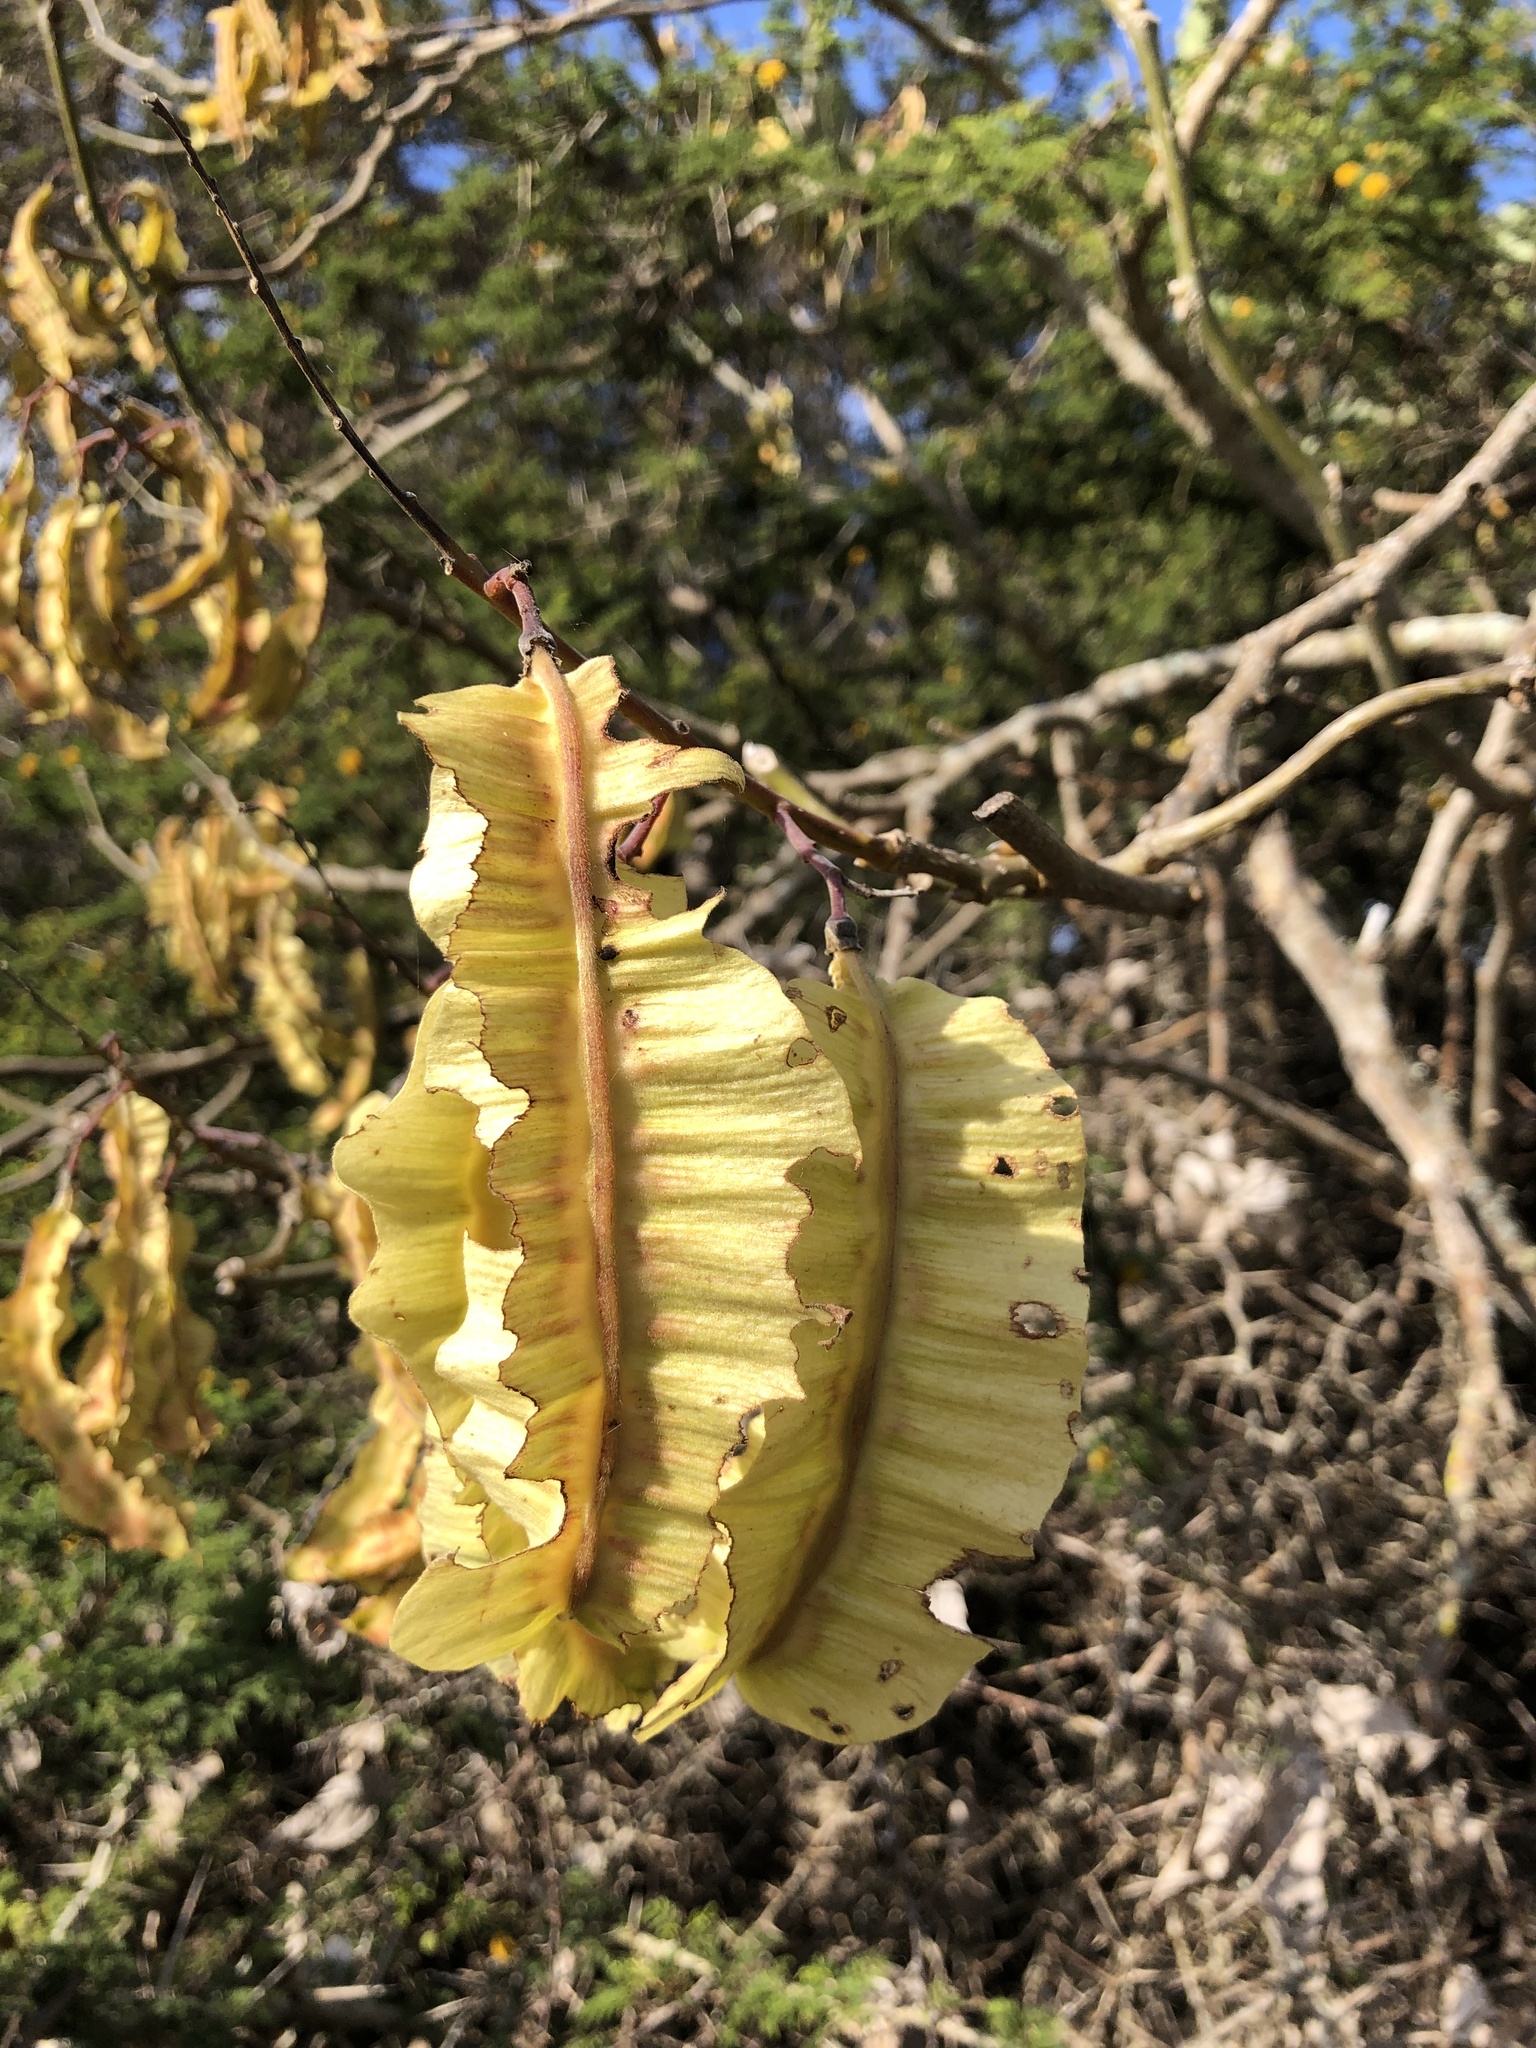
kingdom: Plantae
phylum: Tracheophyta
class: Magnoliopsida
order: Fabales
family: Fabaceae
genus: Piscidia
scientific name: Piscidia carthagenensis
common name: Stinkwood
